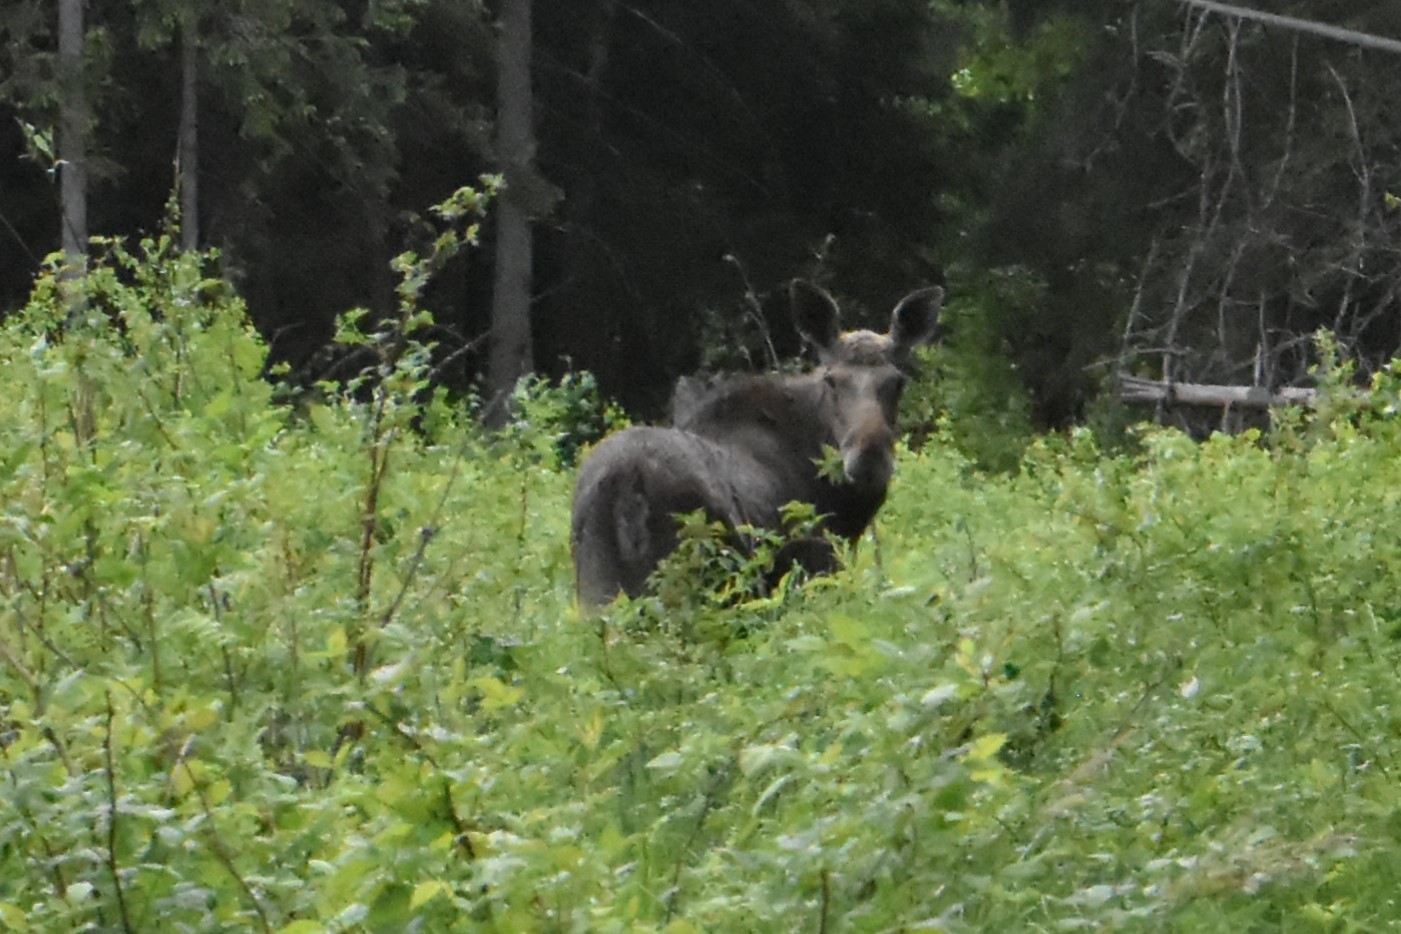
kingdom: Animalia
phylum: Chordata
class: Mammalia
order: Artiodactyla
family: Cervidae
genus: Alces
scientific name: Alces alces
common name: Moose
